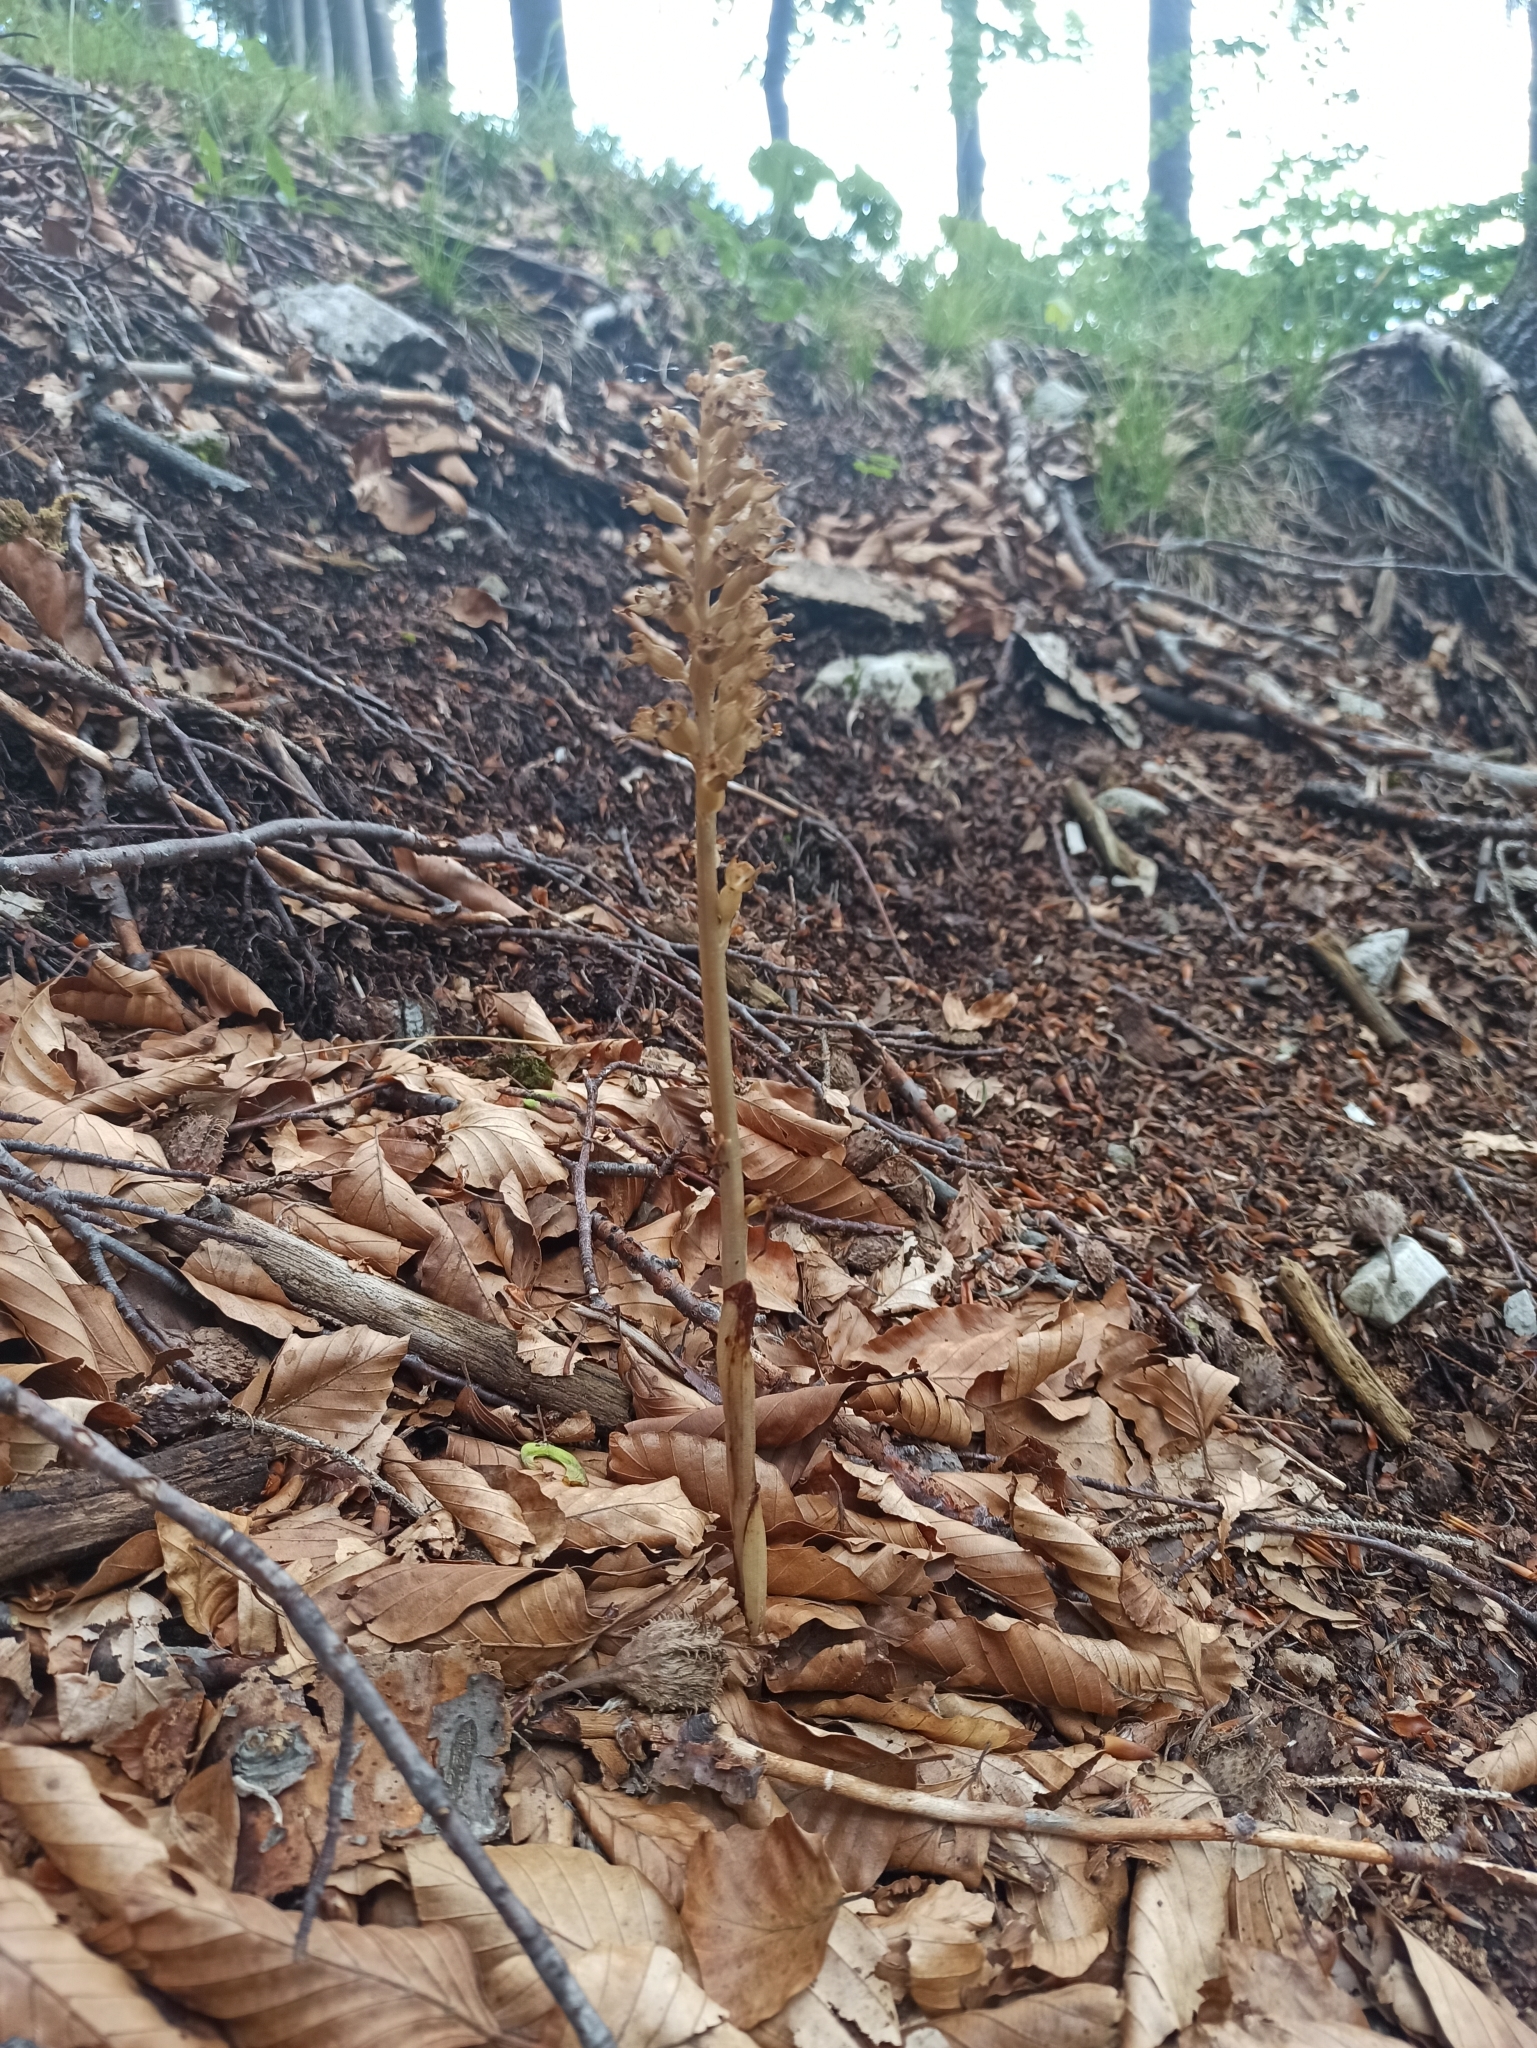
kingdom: Plantae
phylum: Tracheophyta
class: Liliopsida
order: Asparagales
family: Orchidaceae
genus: Neottia
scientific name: Neottia nidus-avis
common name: Bird's-nest orchid
